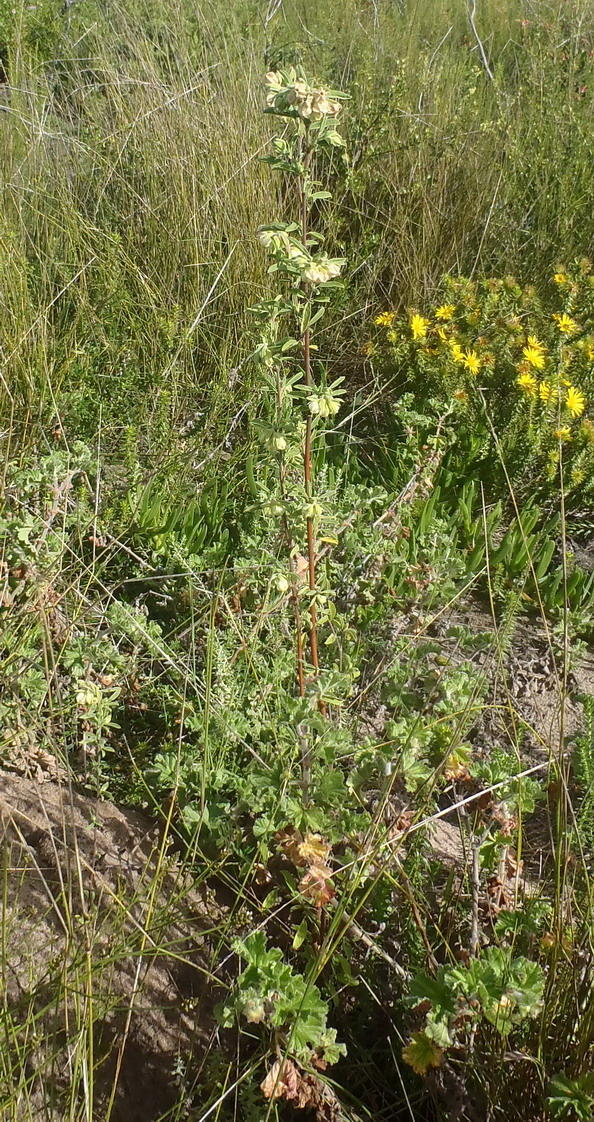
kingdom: Plantae
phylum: Tracheophyta
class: Magnoliopsida
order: Malvales
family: Malvaceae
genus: Hermannia
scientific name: Hermannia hyssopifolia
